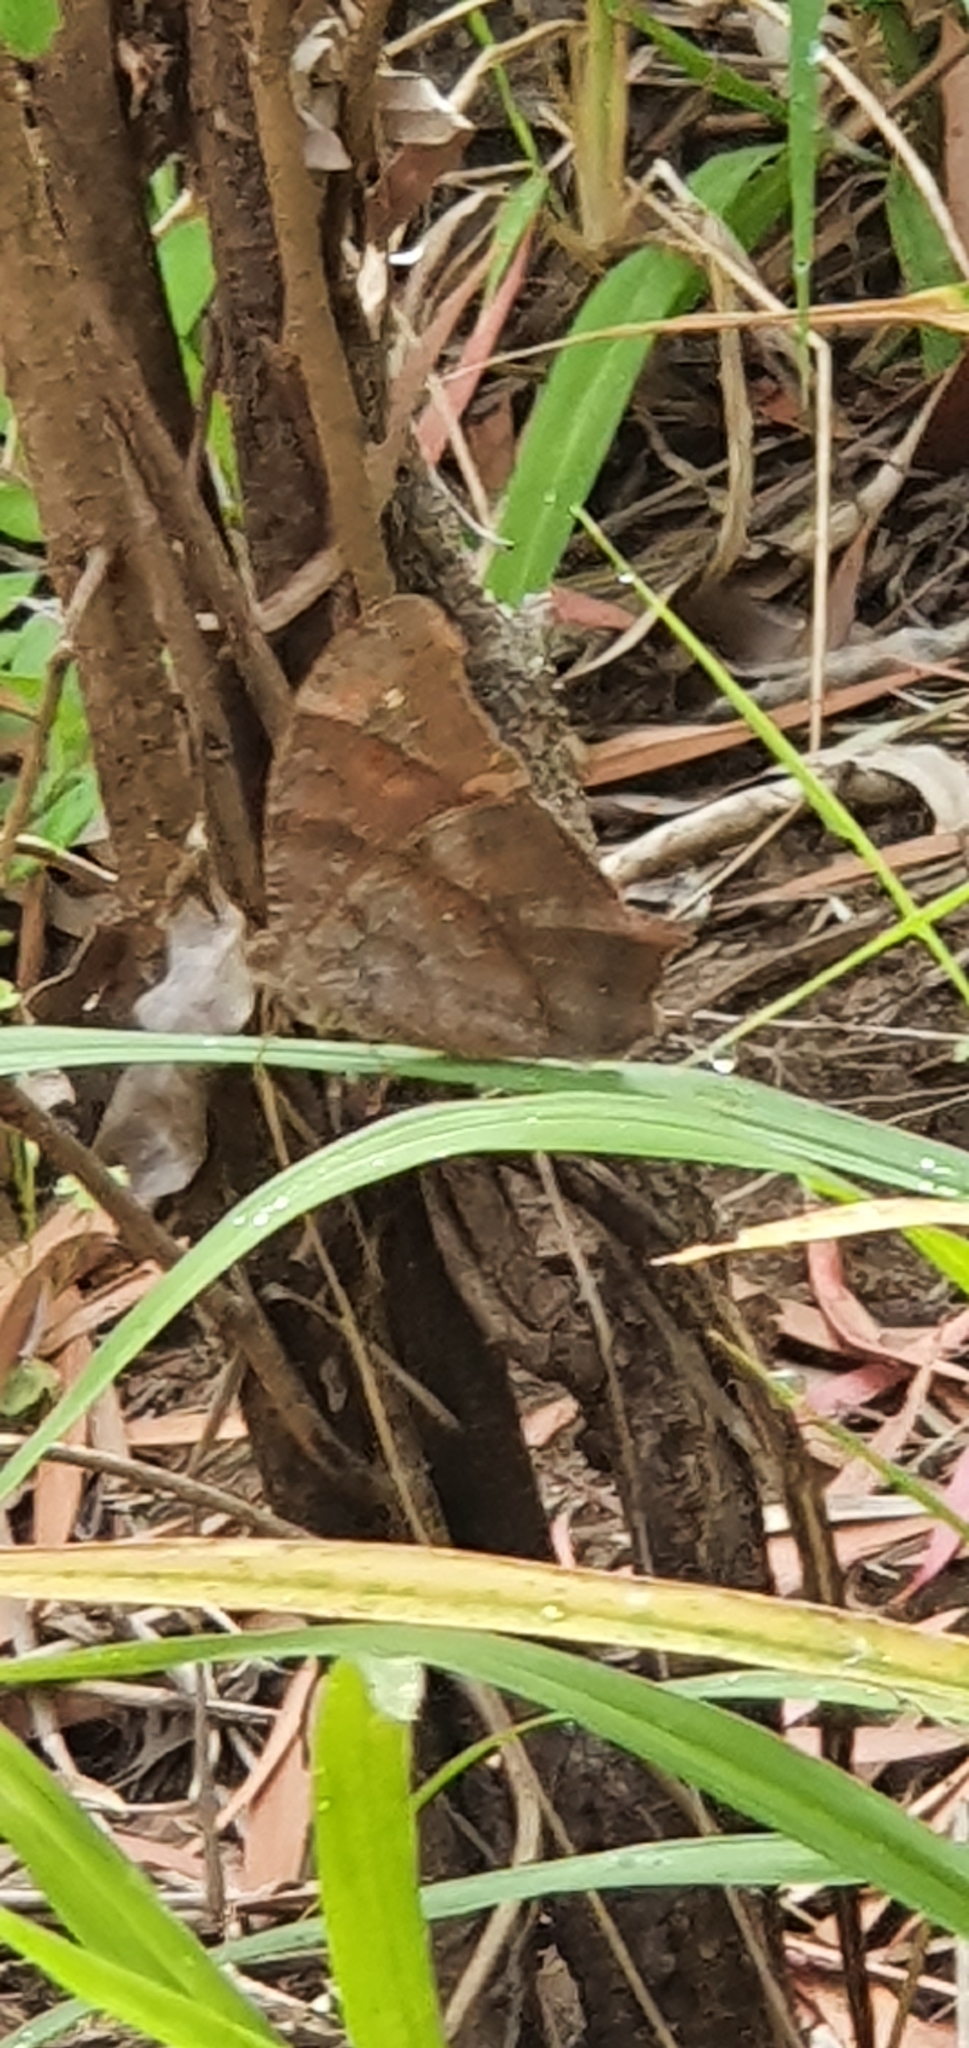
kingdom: Animalia
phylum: Arthropoda
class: Insecta
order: Lepidoptera
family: Nymphalidae
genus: Melanitis
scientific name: Melanitis leda
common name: Twilight brown
